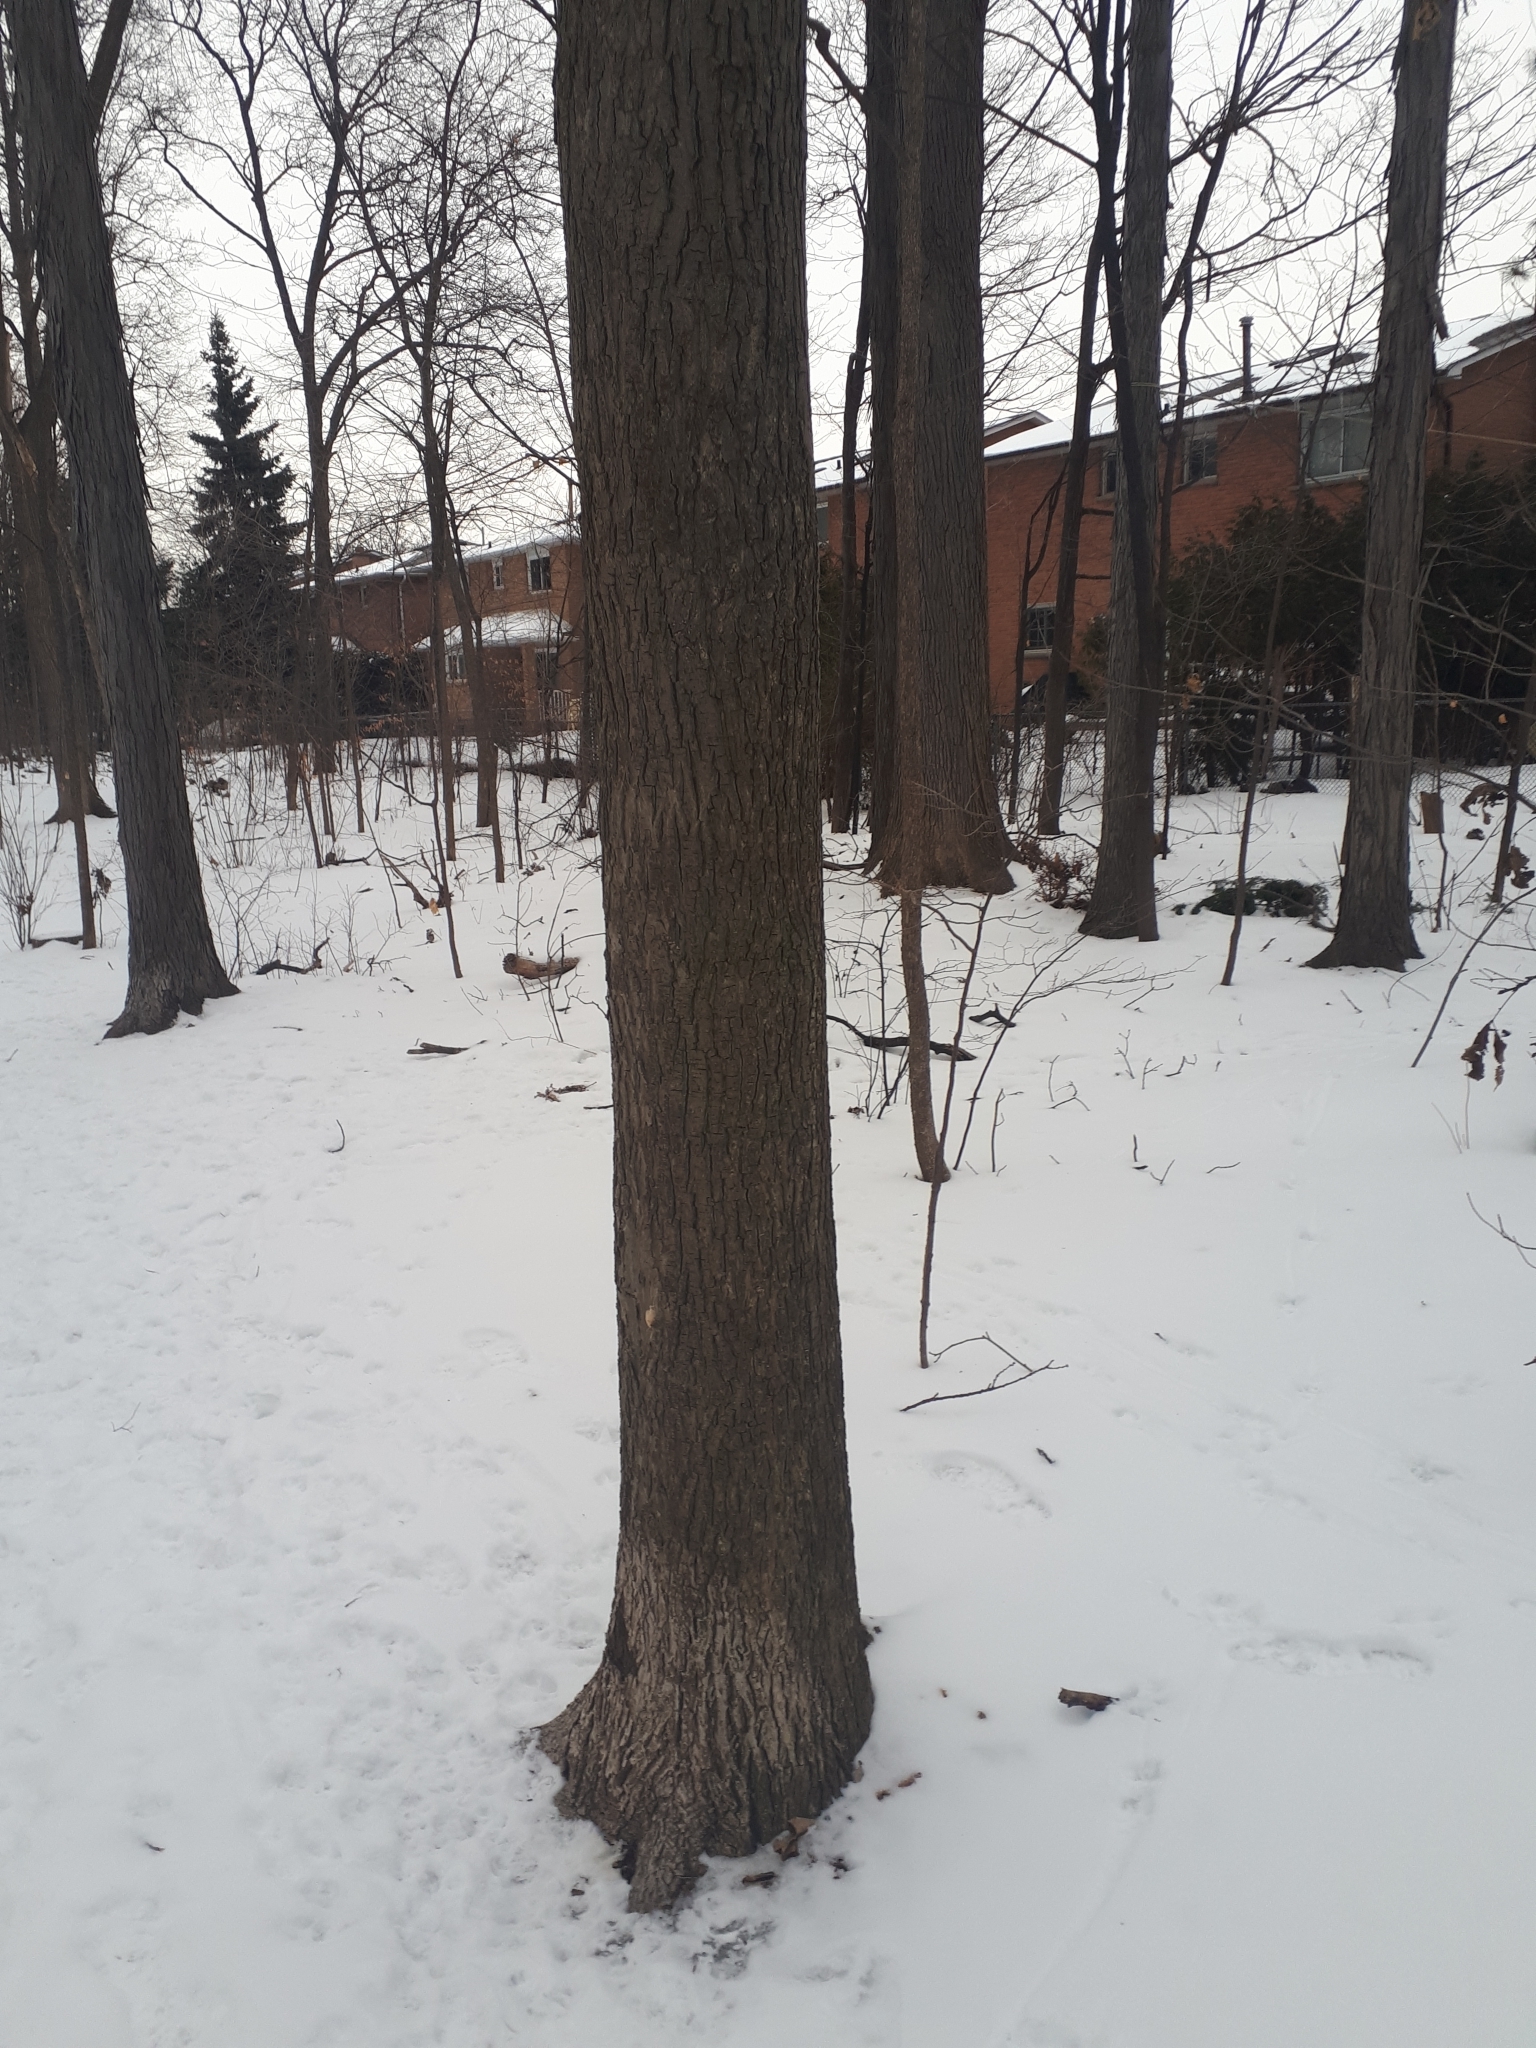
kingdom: Plantae
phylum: Tracheophyta
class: Magnoliopsida
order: Fagales
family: Juglandaceae
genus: Carya
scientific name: Carya cordiformis
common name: Bitternut hickory
